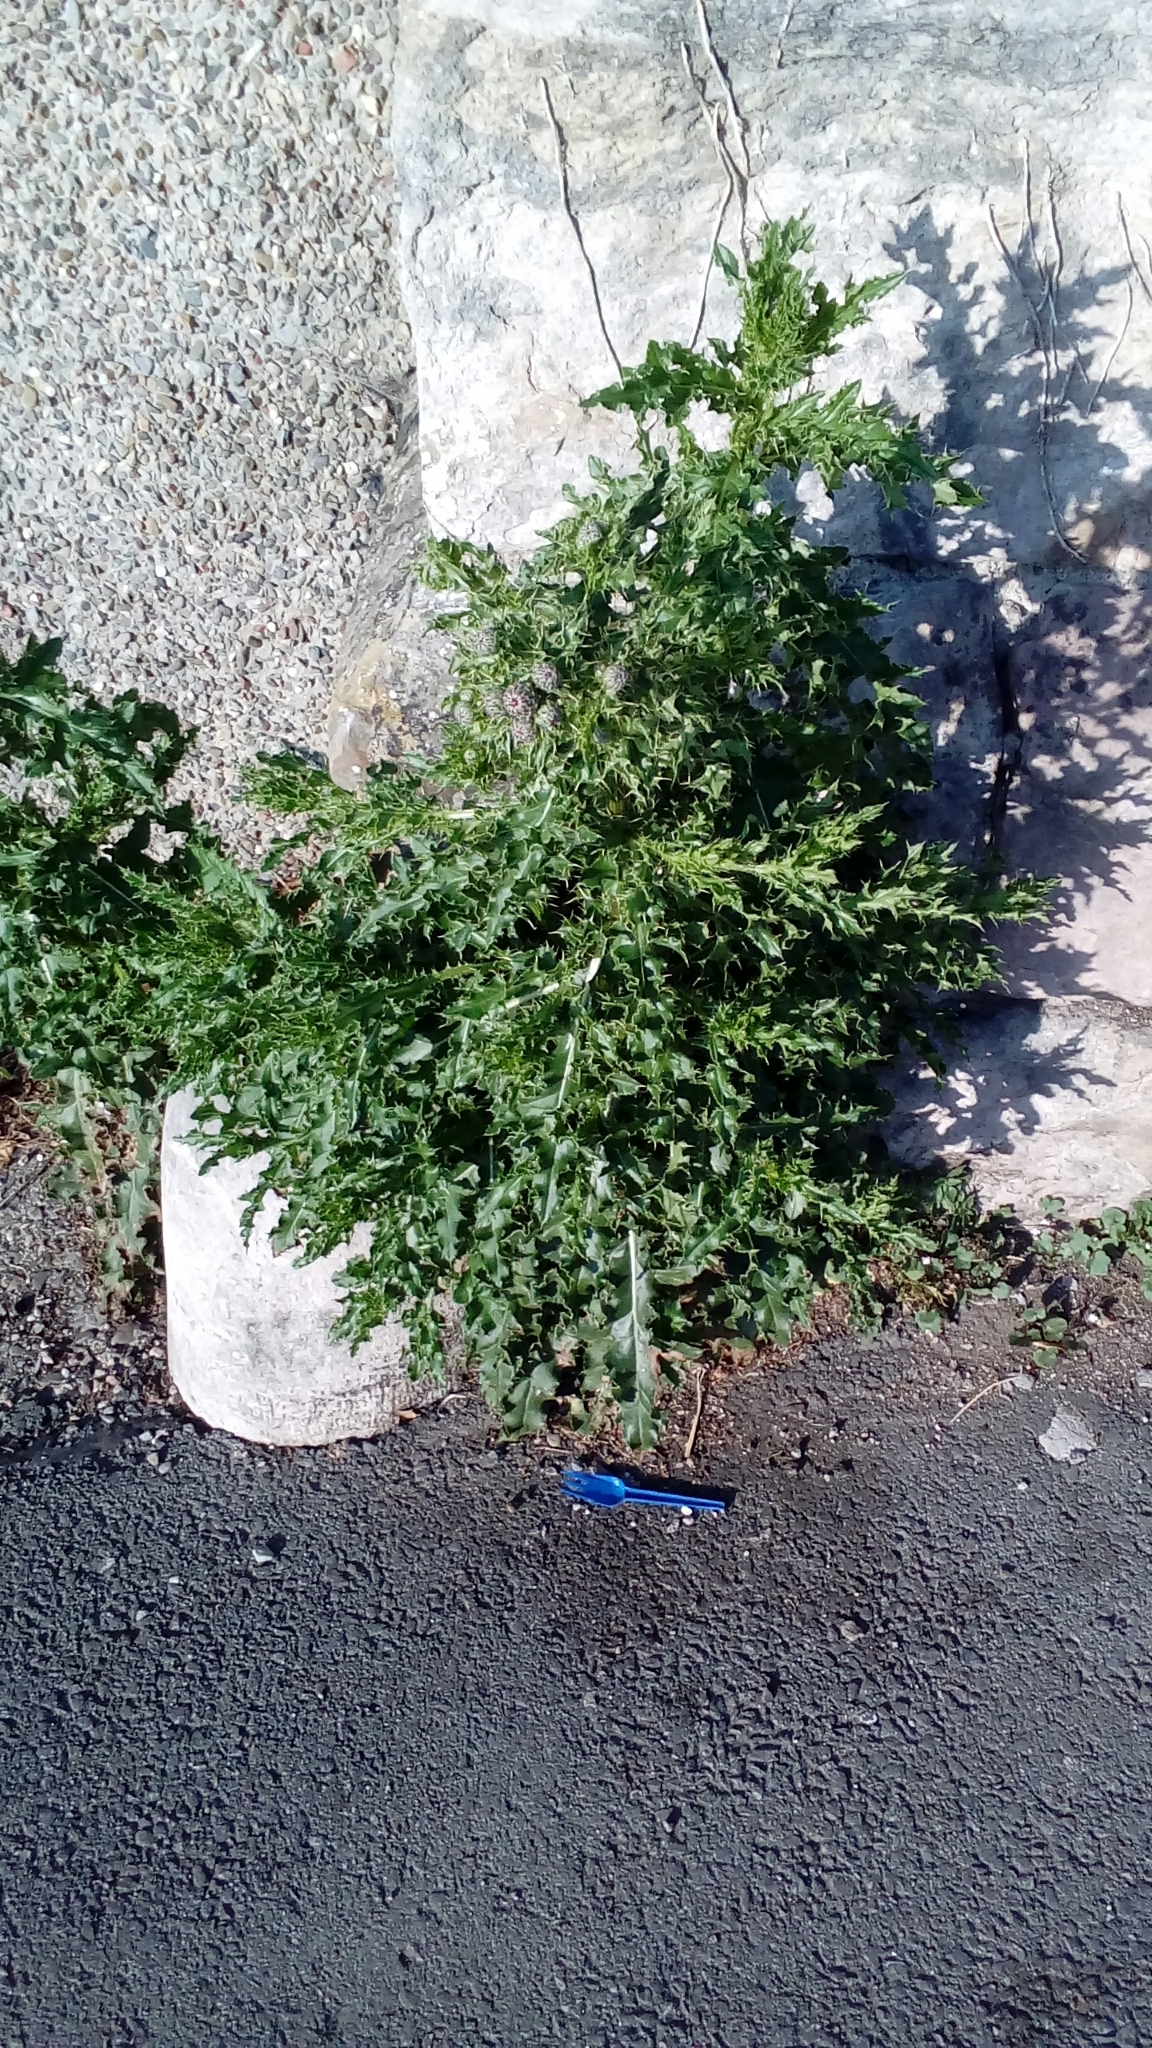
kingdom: Plantae
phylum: Tracheophyta
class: Magnoliopsida
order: Asterales
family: Asteraceae
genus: Cirsium
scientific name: Cirsium arvense
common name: Creeping thistle
